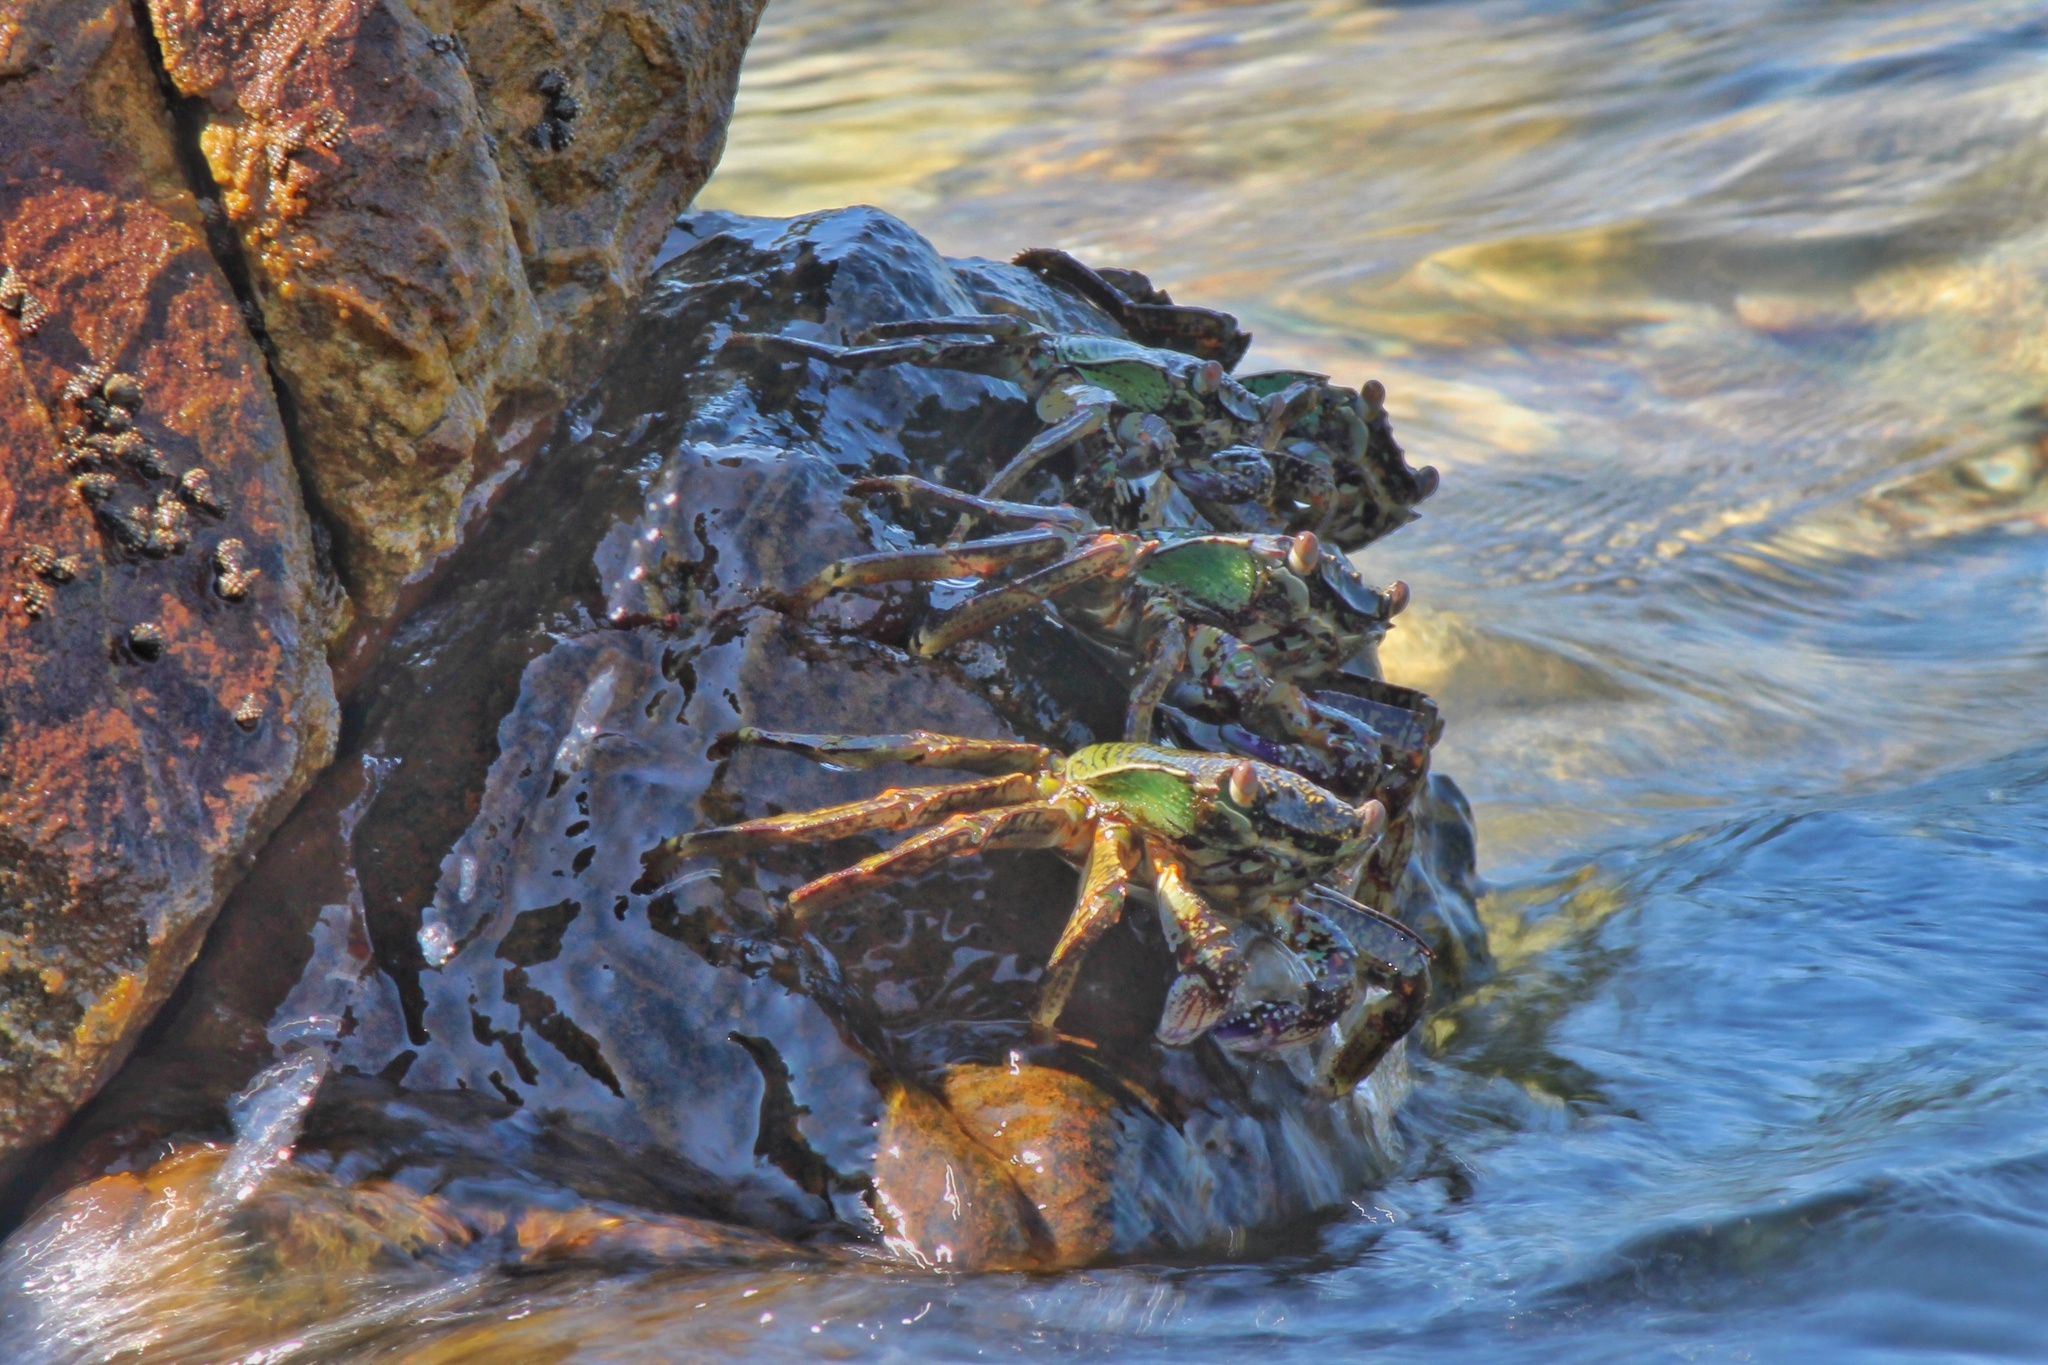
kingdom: Animalia
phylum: Arthropoda
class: Malacostraca
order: Decapoda
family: Grapsidae
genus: Grapsus
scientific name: Grapsus albolineatus
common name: Mottled lightfoot crab
